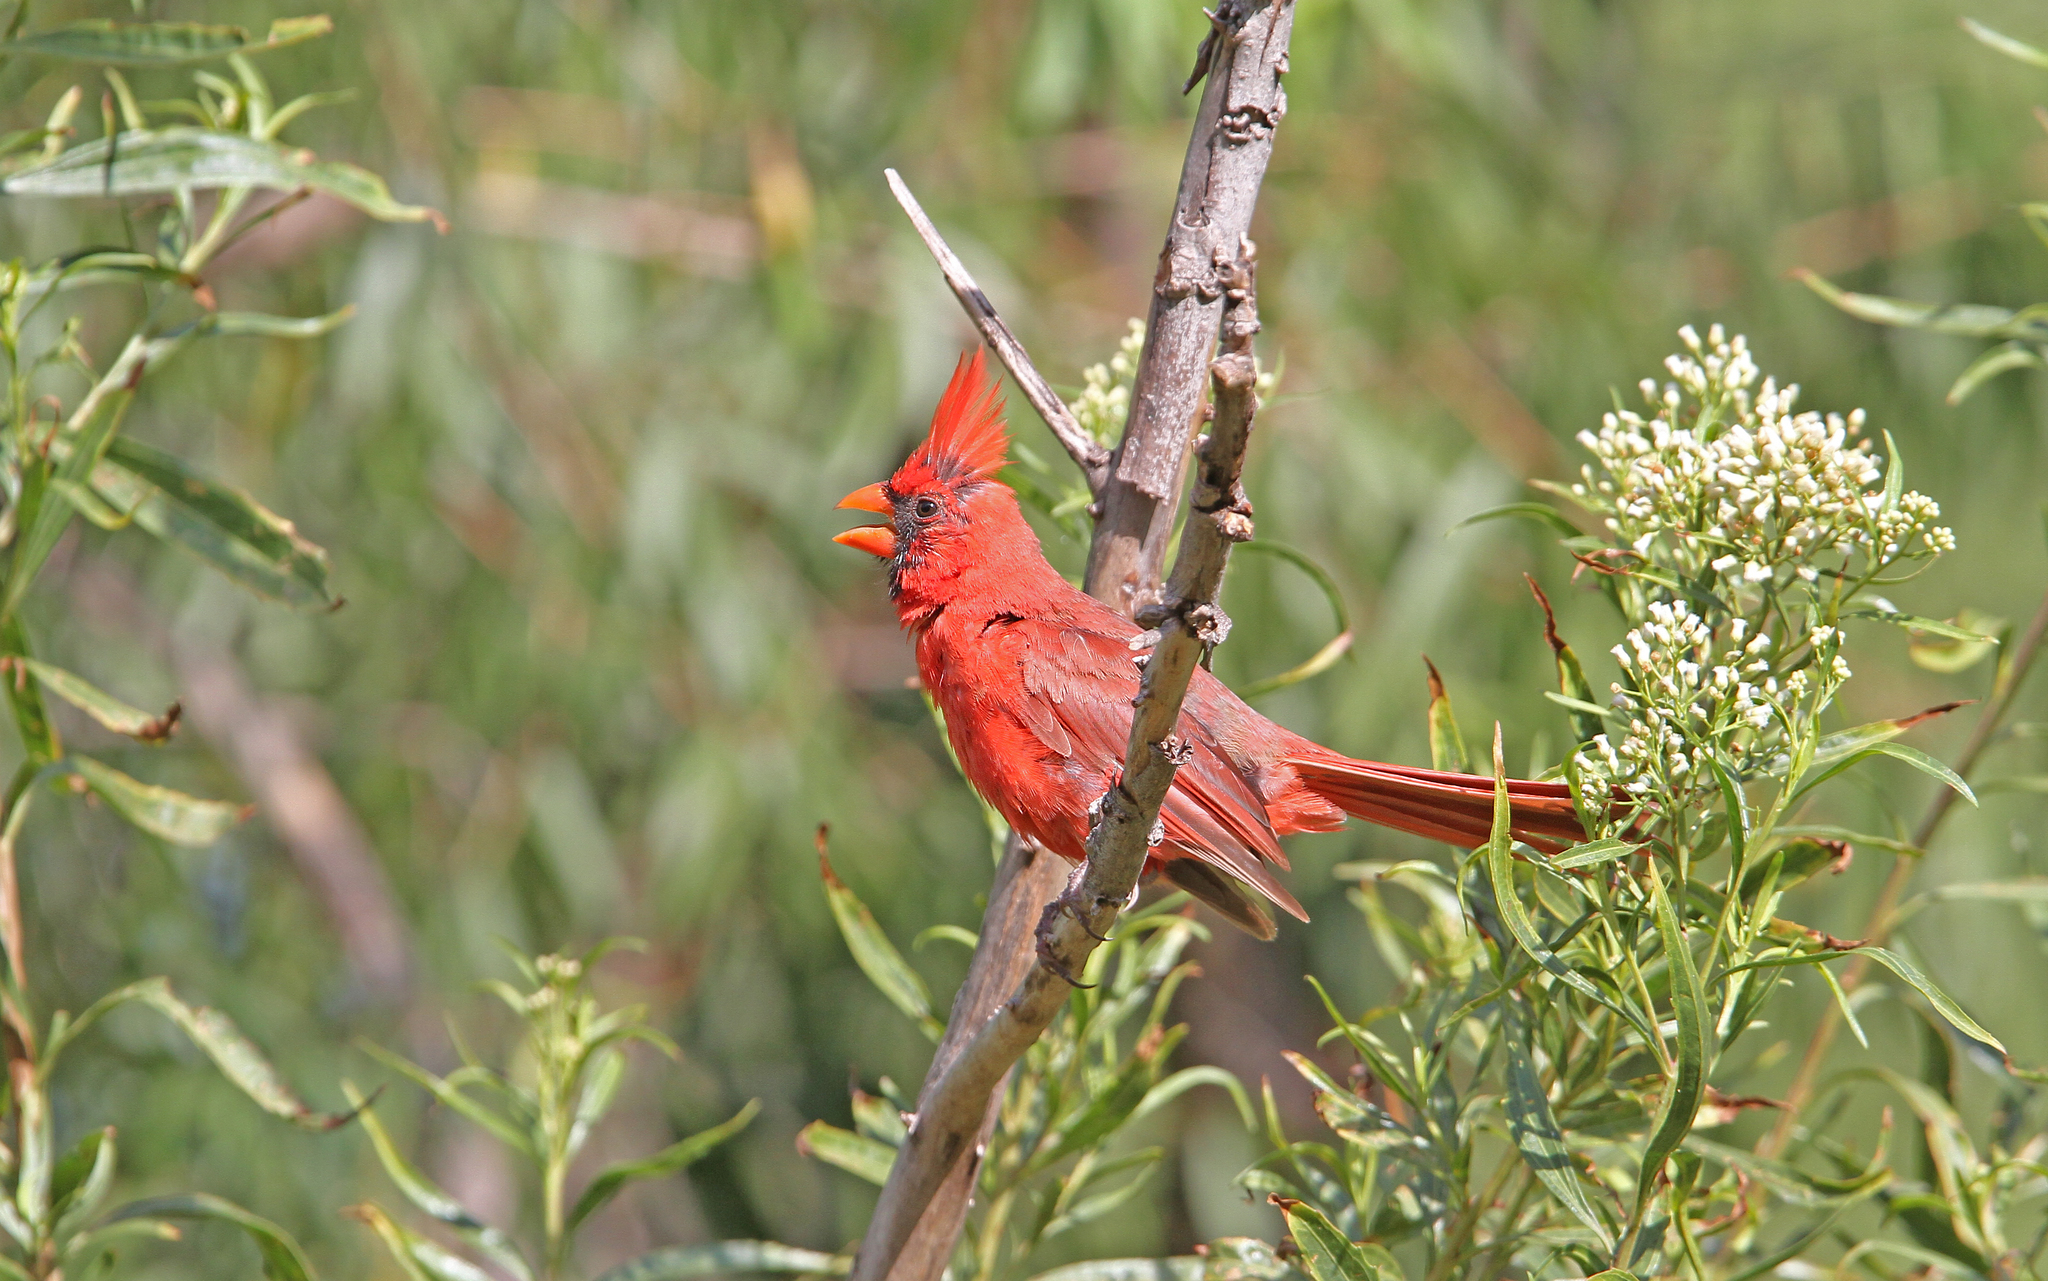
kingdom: Animalia
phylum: Chordata
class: Aves
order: Passeriformes
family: Cardinalidae
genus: Cardinalis
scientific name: Cardinalis cardinalis
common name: Northern cardinal
